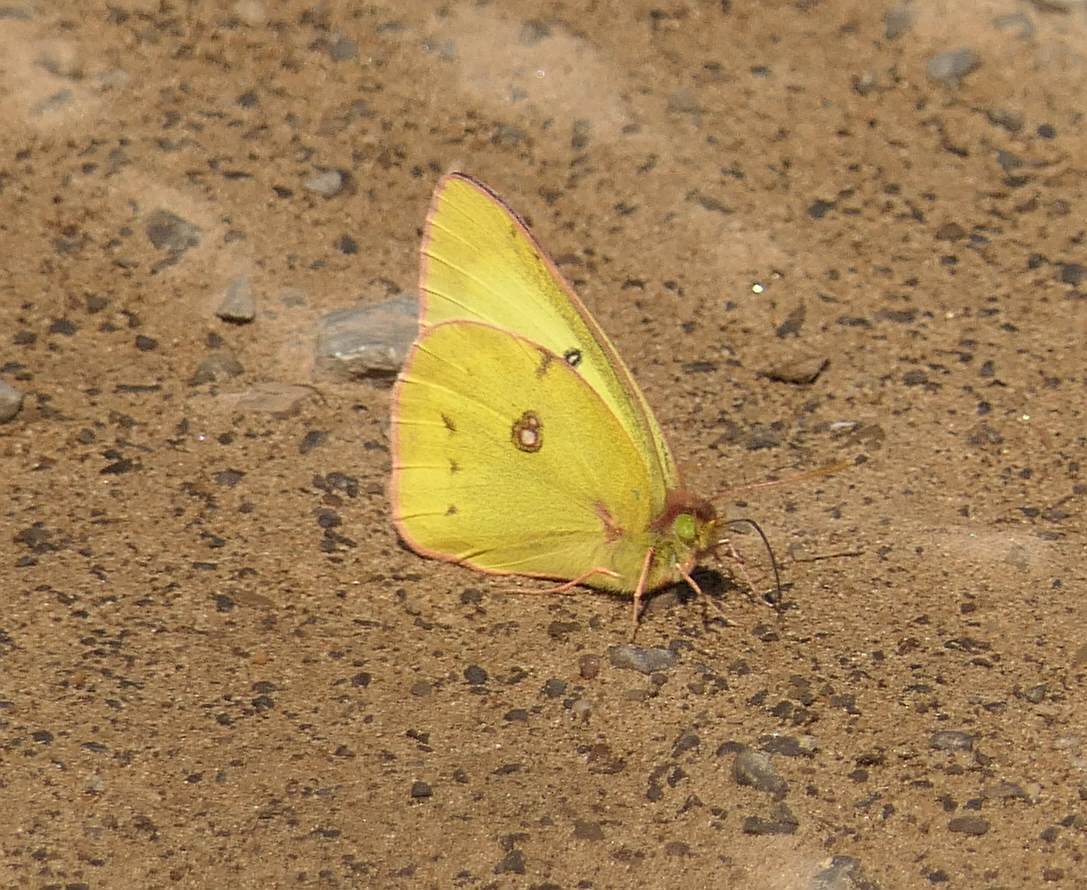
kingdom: Animalia
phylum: Arthropoda
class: Insecta
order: Lepidoptera
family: Pieridae
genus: Colias
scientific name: Colias philodice
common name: Clouded sulphur
